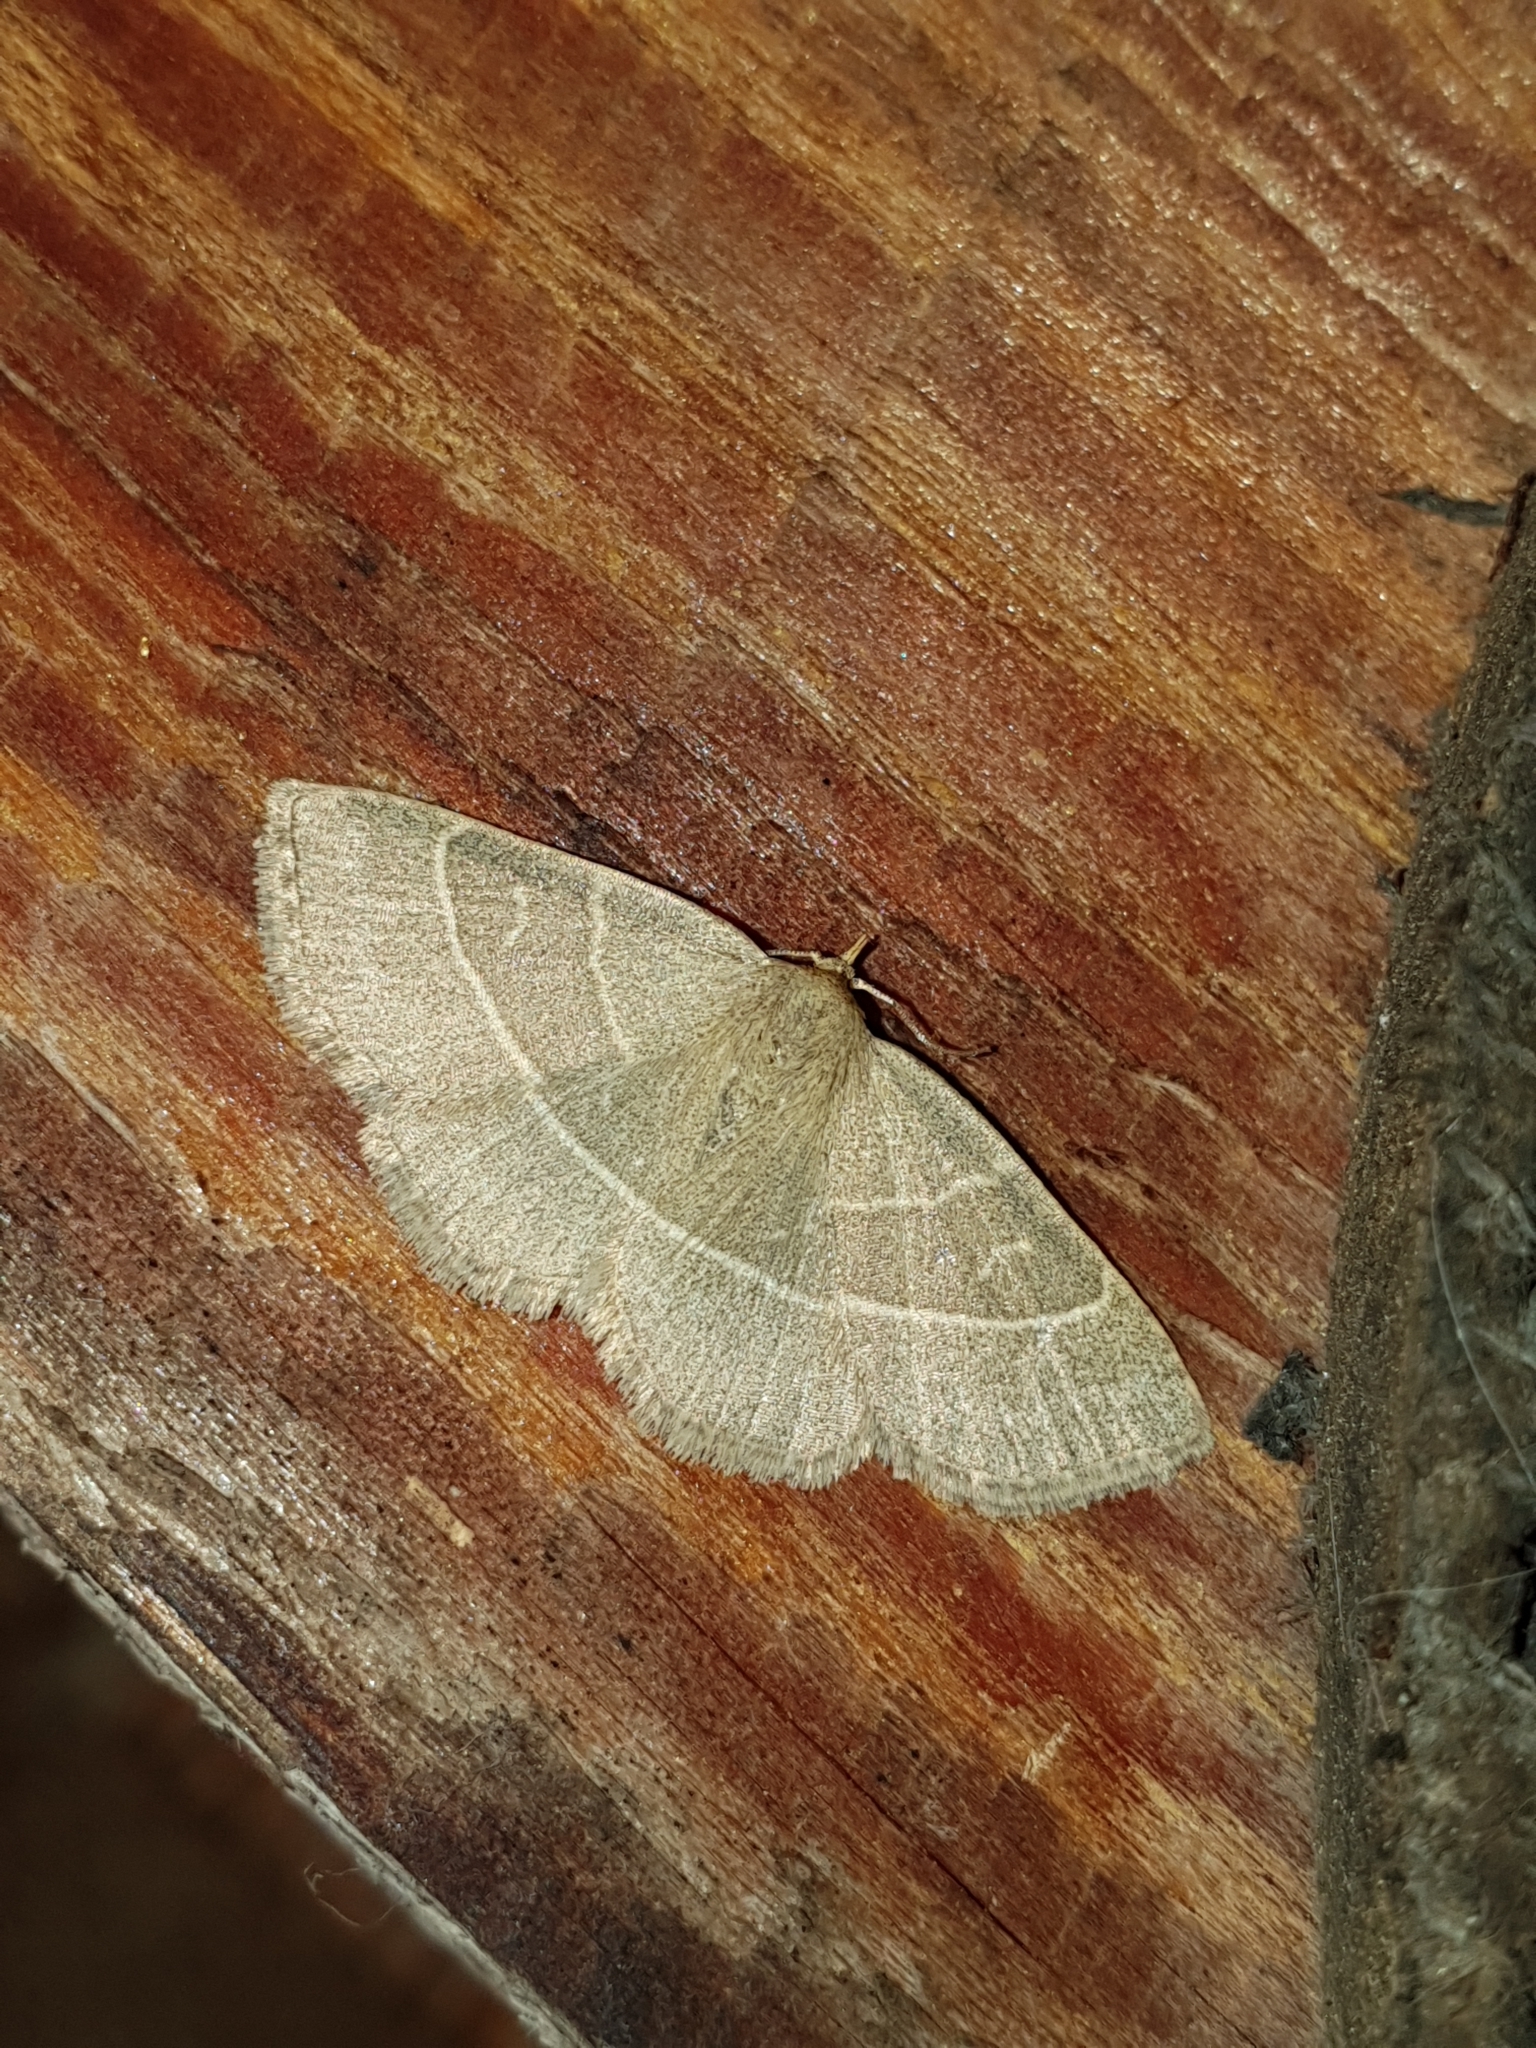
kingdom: Animalia
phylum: Arthropoda
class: Insecta
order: Lepidoptera
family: Erebidae
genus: Trisateles
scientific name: Trisateles emortualis
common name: Olive crescent
